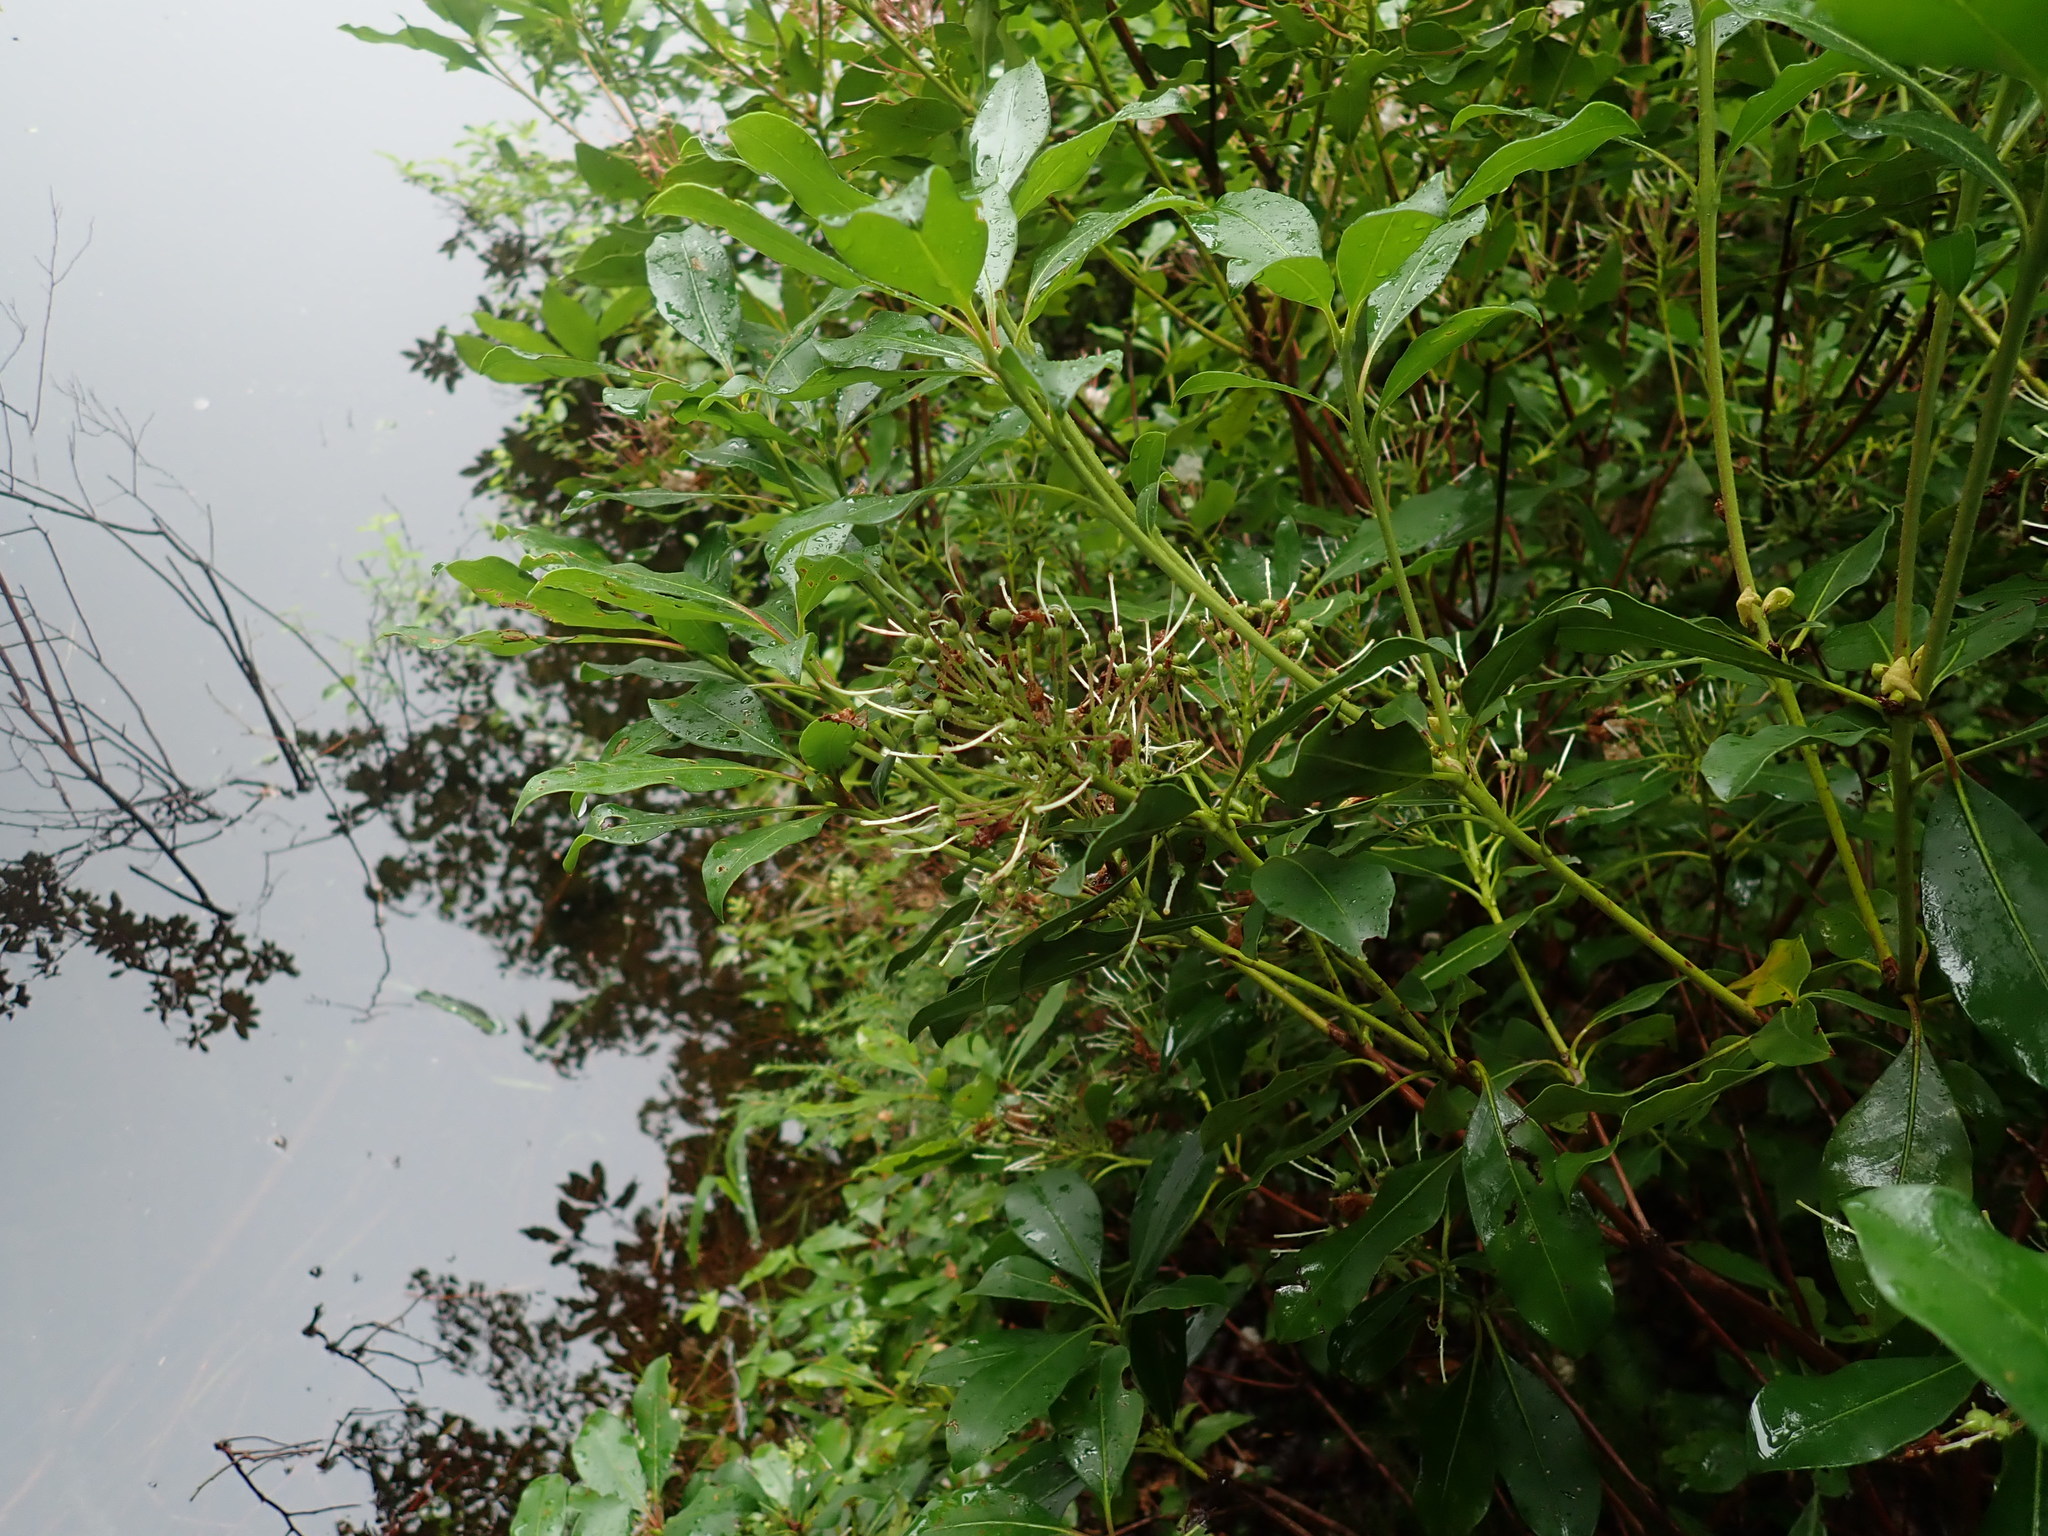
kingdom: Plantae
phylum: Tracheophyta
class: Magnoliopsida
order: Ericales
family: Ericaceae
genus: Kalmia
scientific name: Kalmia latifolia
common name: Mountain-laurel
